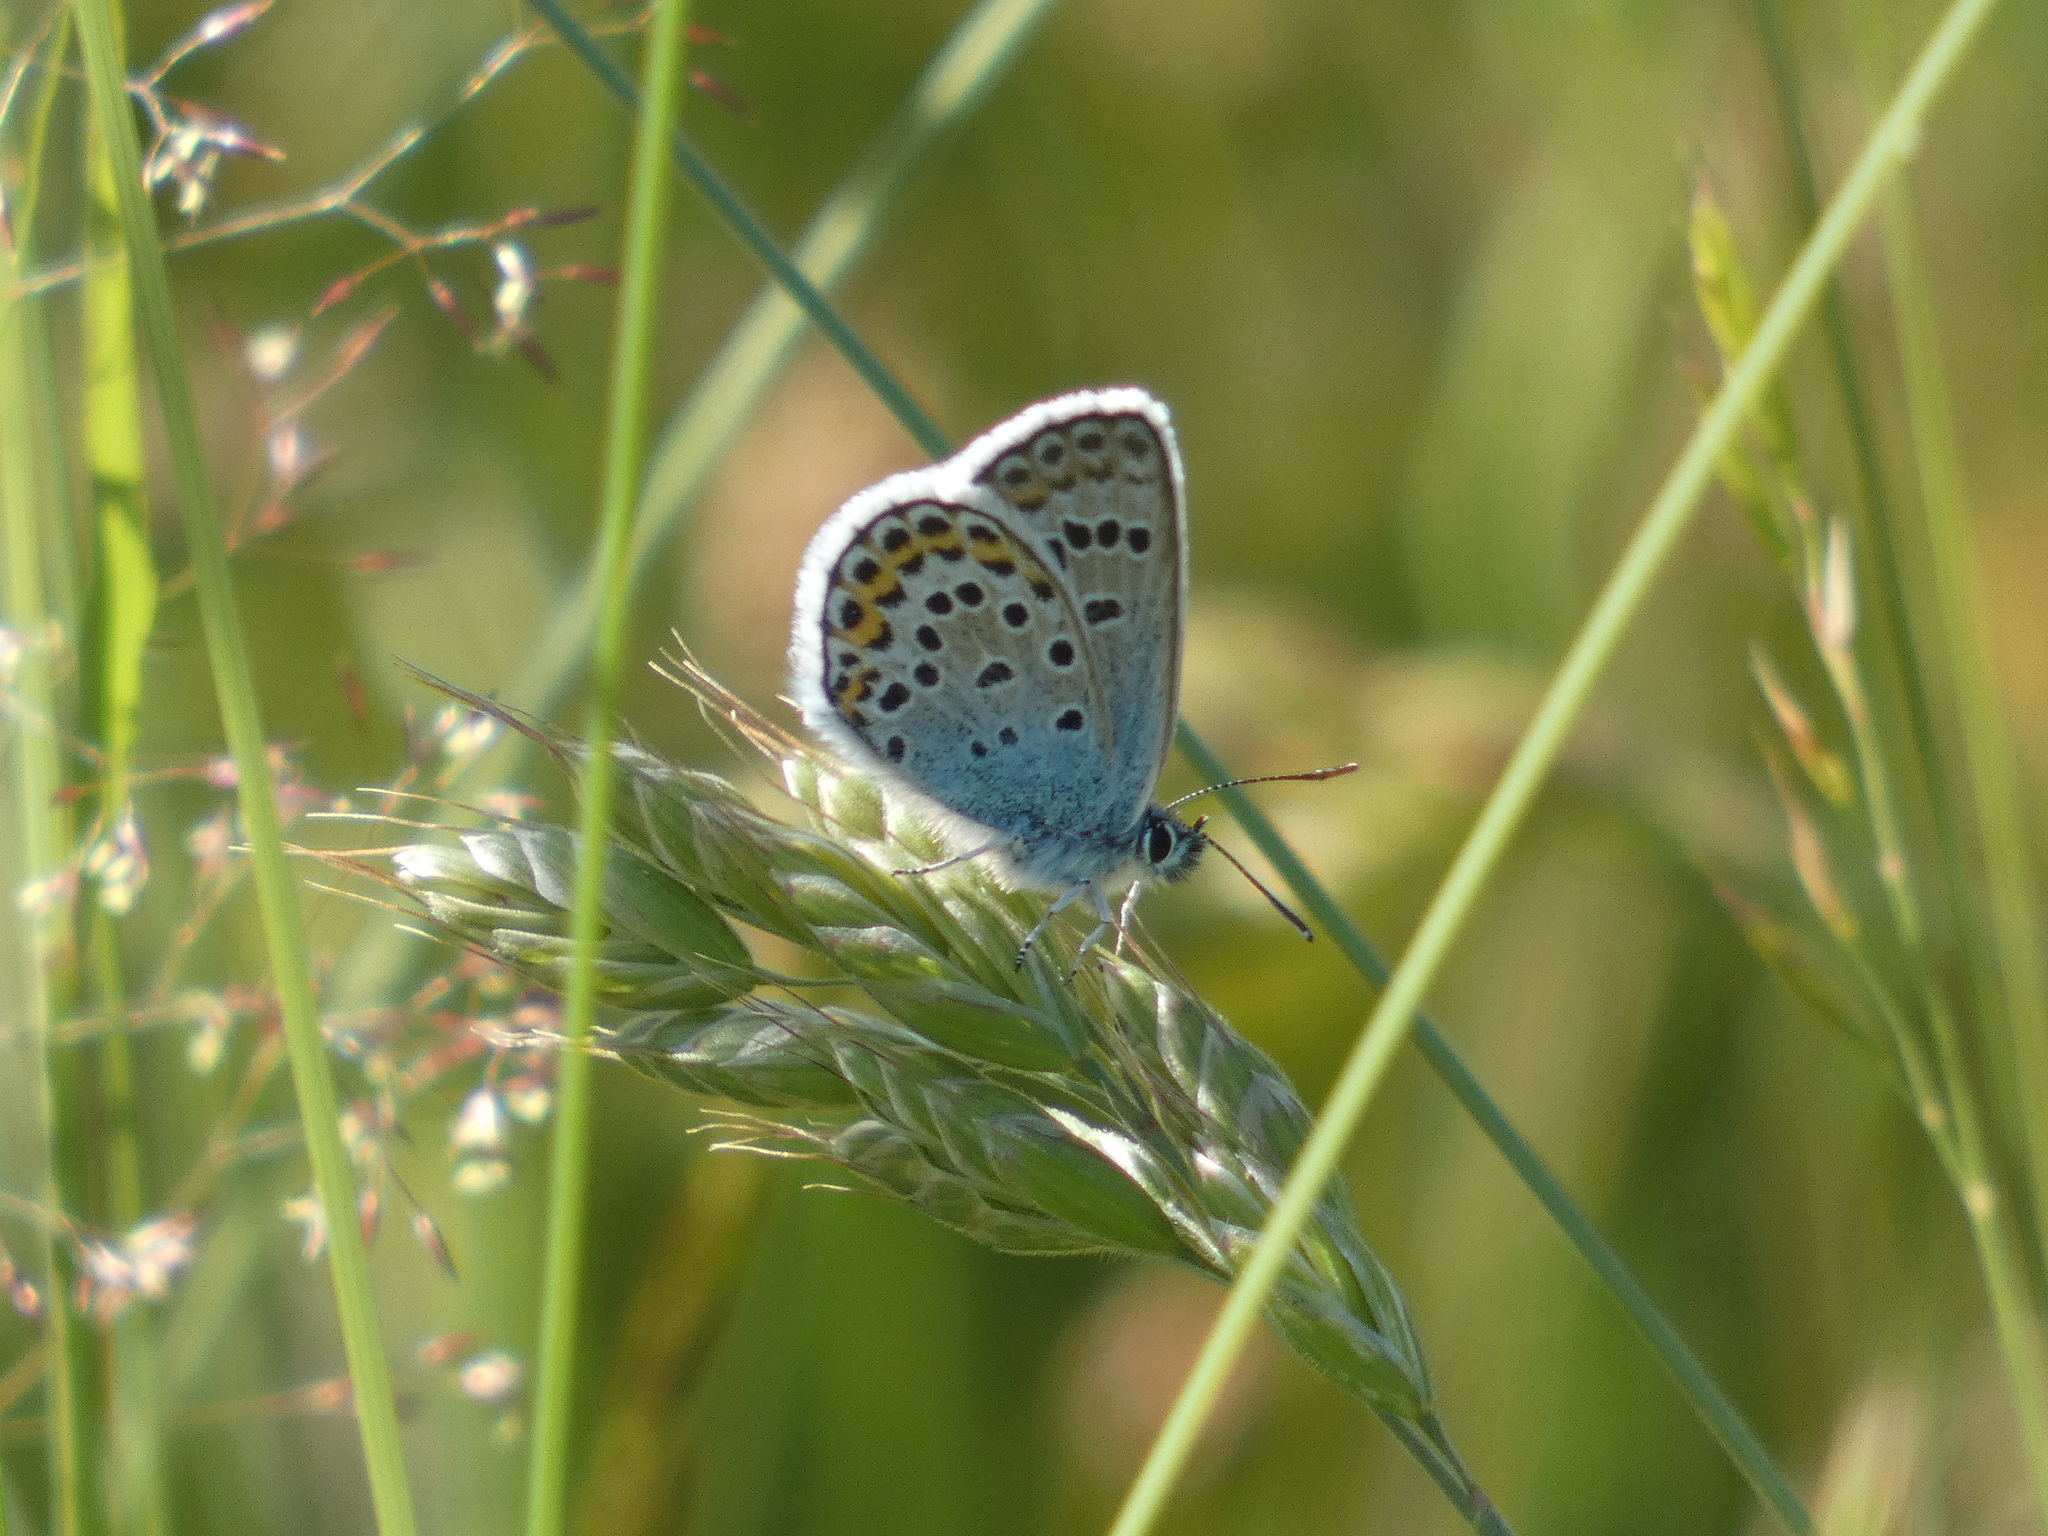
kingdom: Animalia
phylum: Arthropoda
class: Insecta
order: Lepidoptera
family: Lycaenidae
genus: Plebejus
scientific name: Plebejus argus
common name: Silver-studded blue
